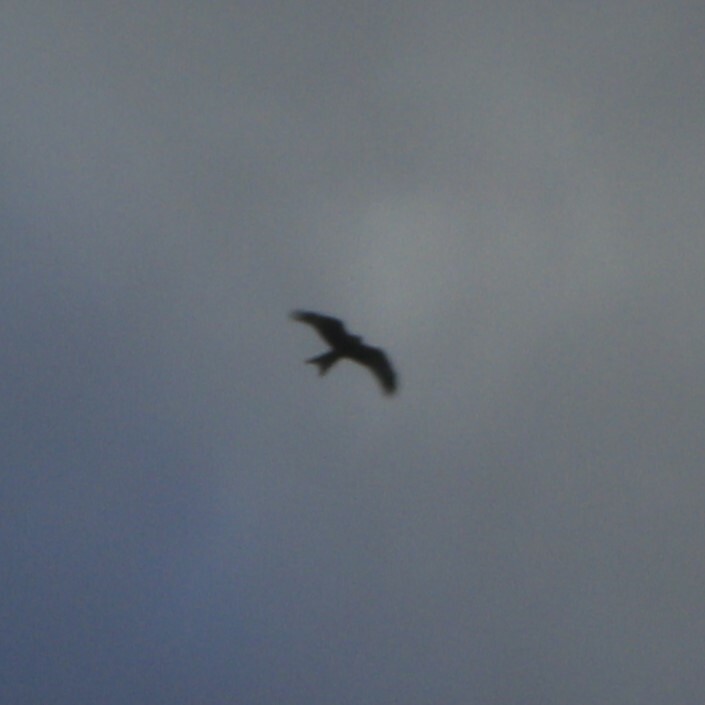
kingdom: Animalia
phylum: Chordata
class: Aves
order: Accipitriformes
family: Accipitridae
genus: Milvus
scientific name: Milvus milvus
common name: Red kite
